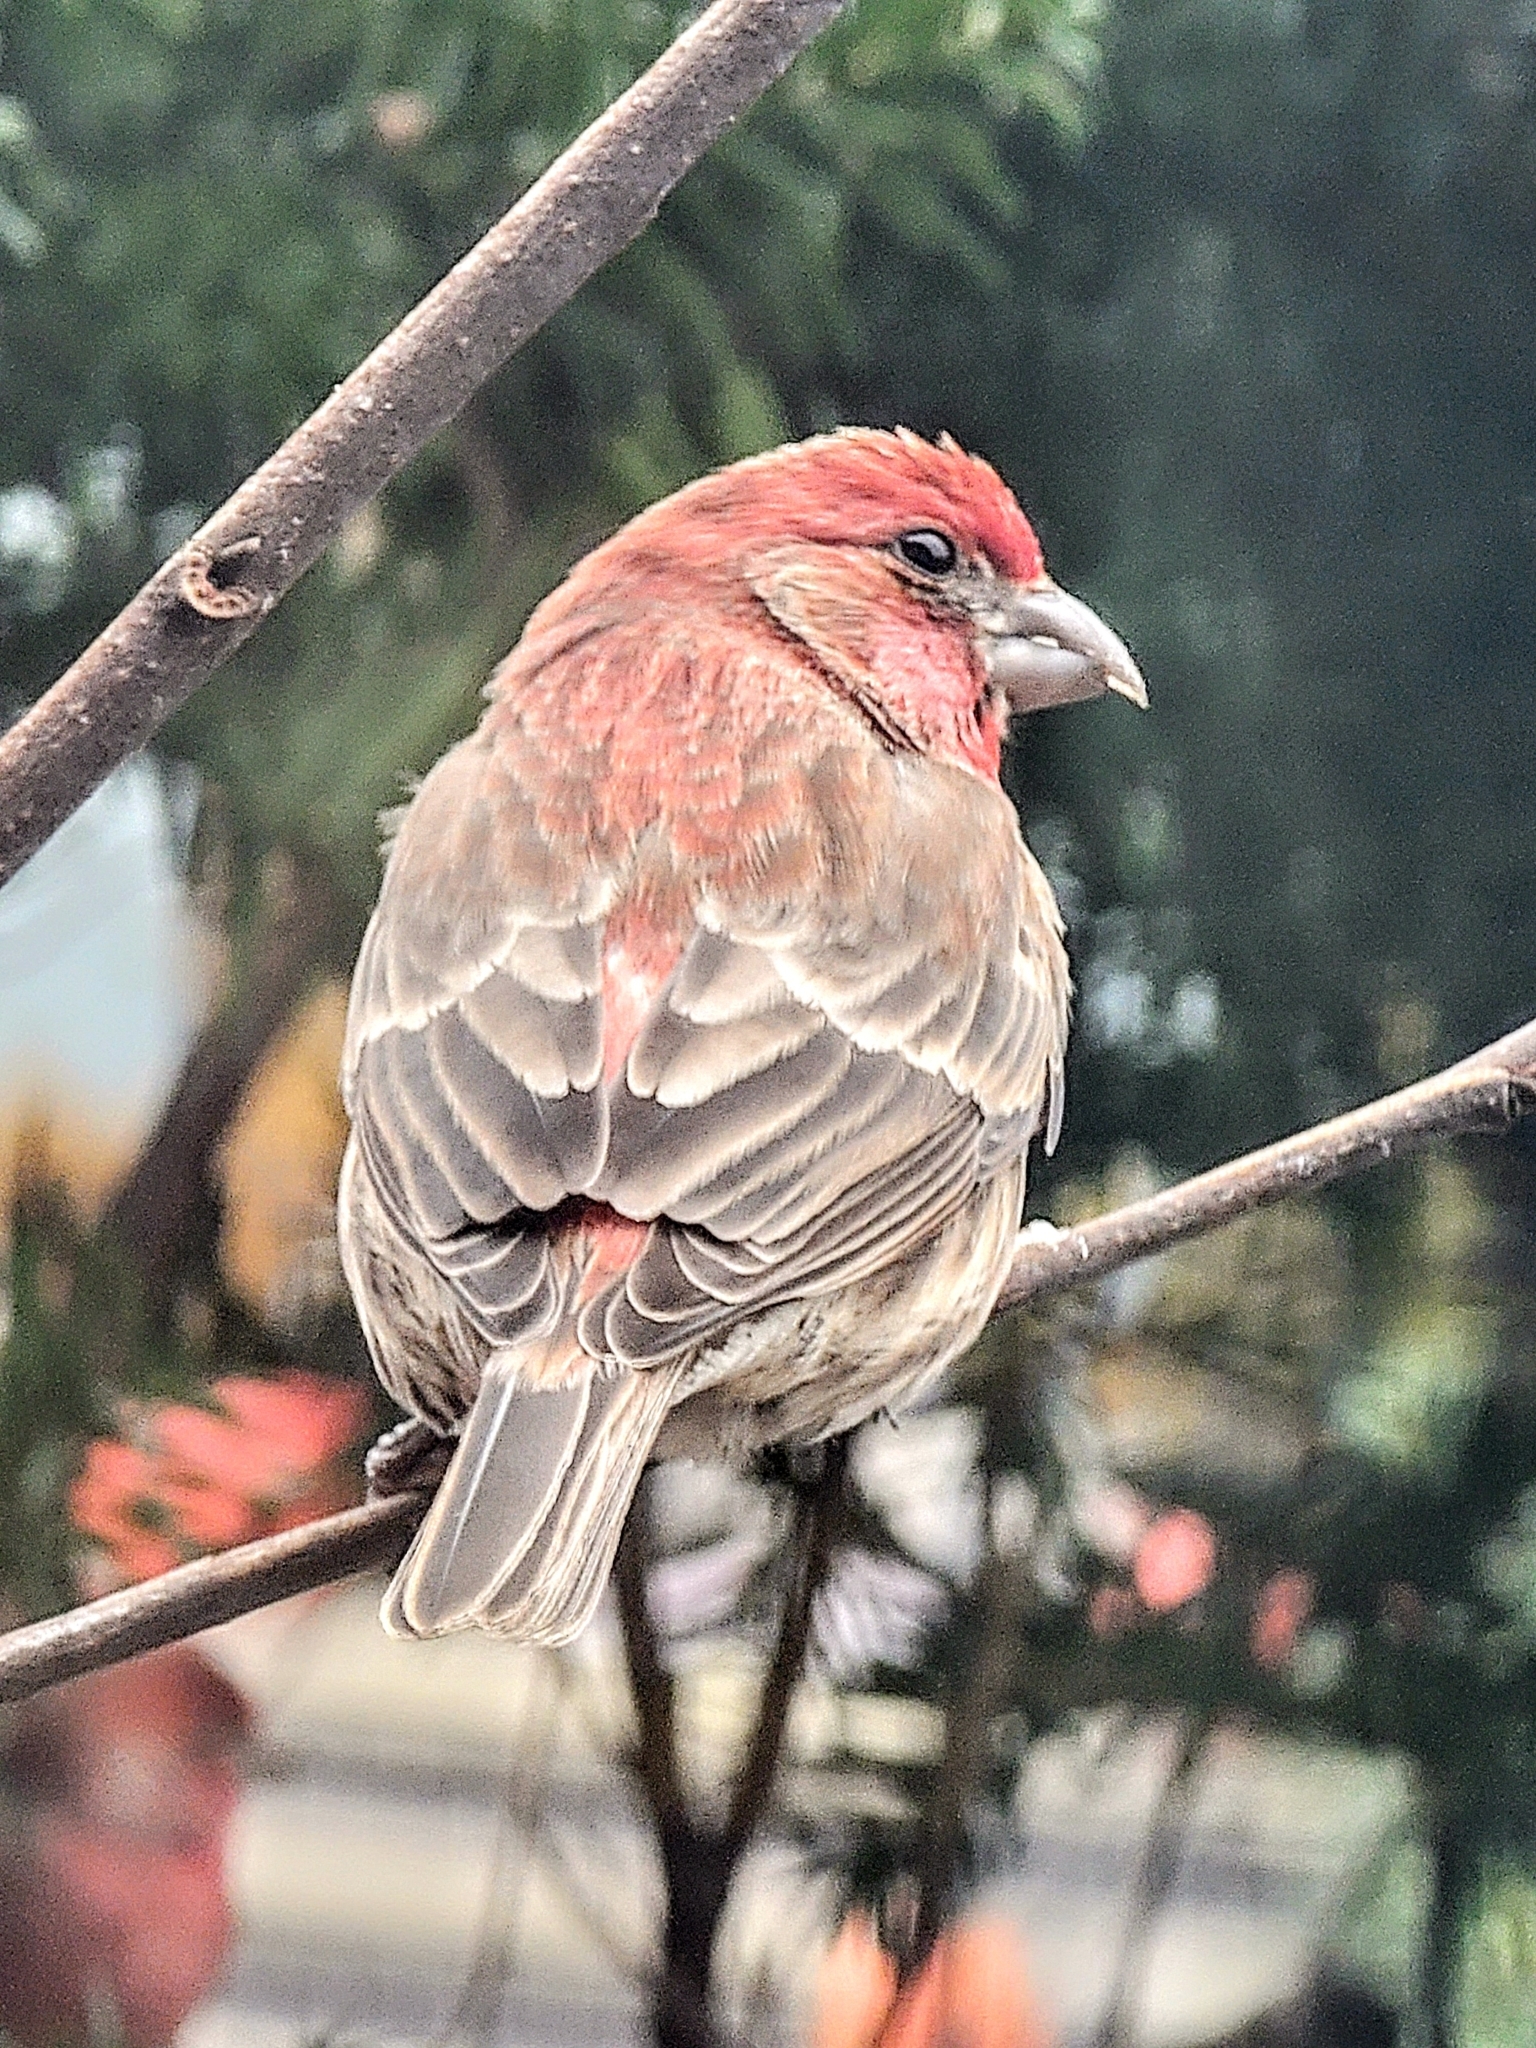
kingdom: Animalia
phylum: Chordata
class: Aves
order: Passeriformes
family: Fringillidae
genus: Haemorhous
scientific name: Haemorhous mexicanus
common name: House finch
